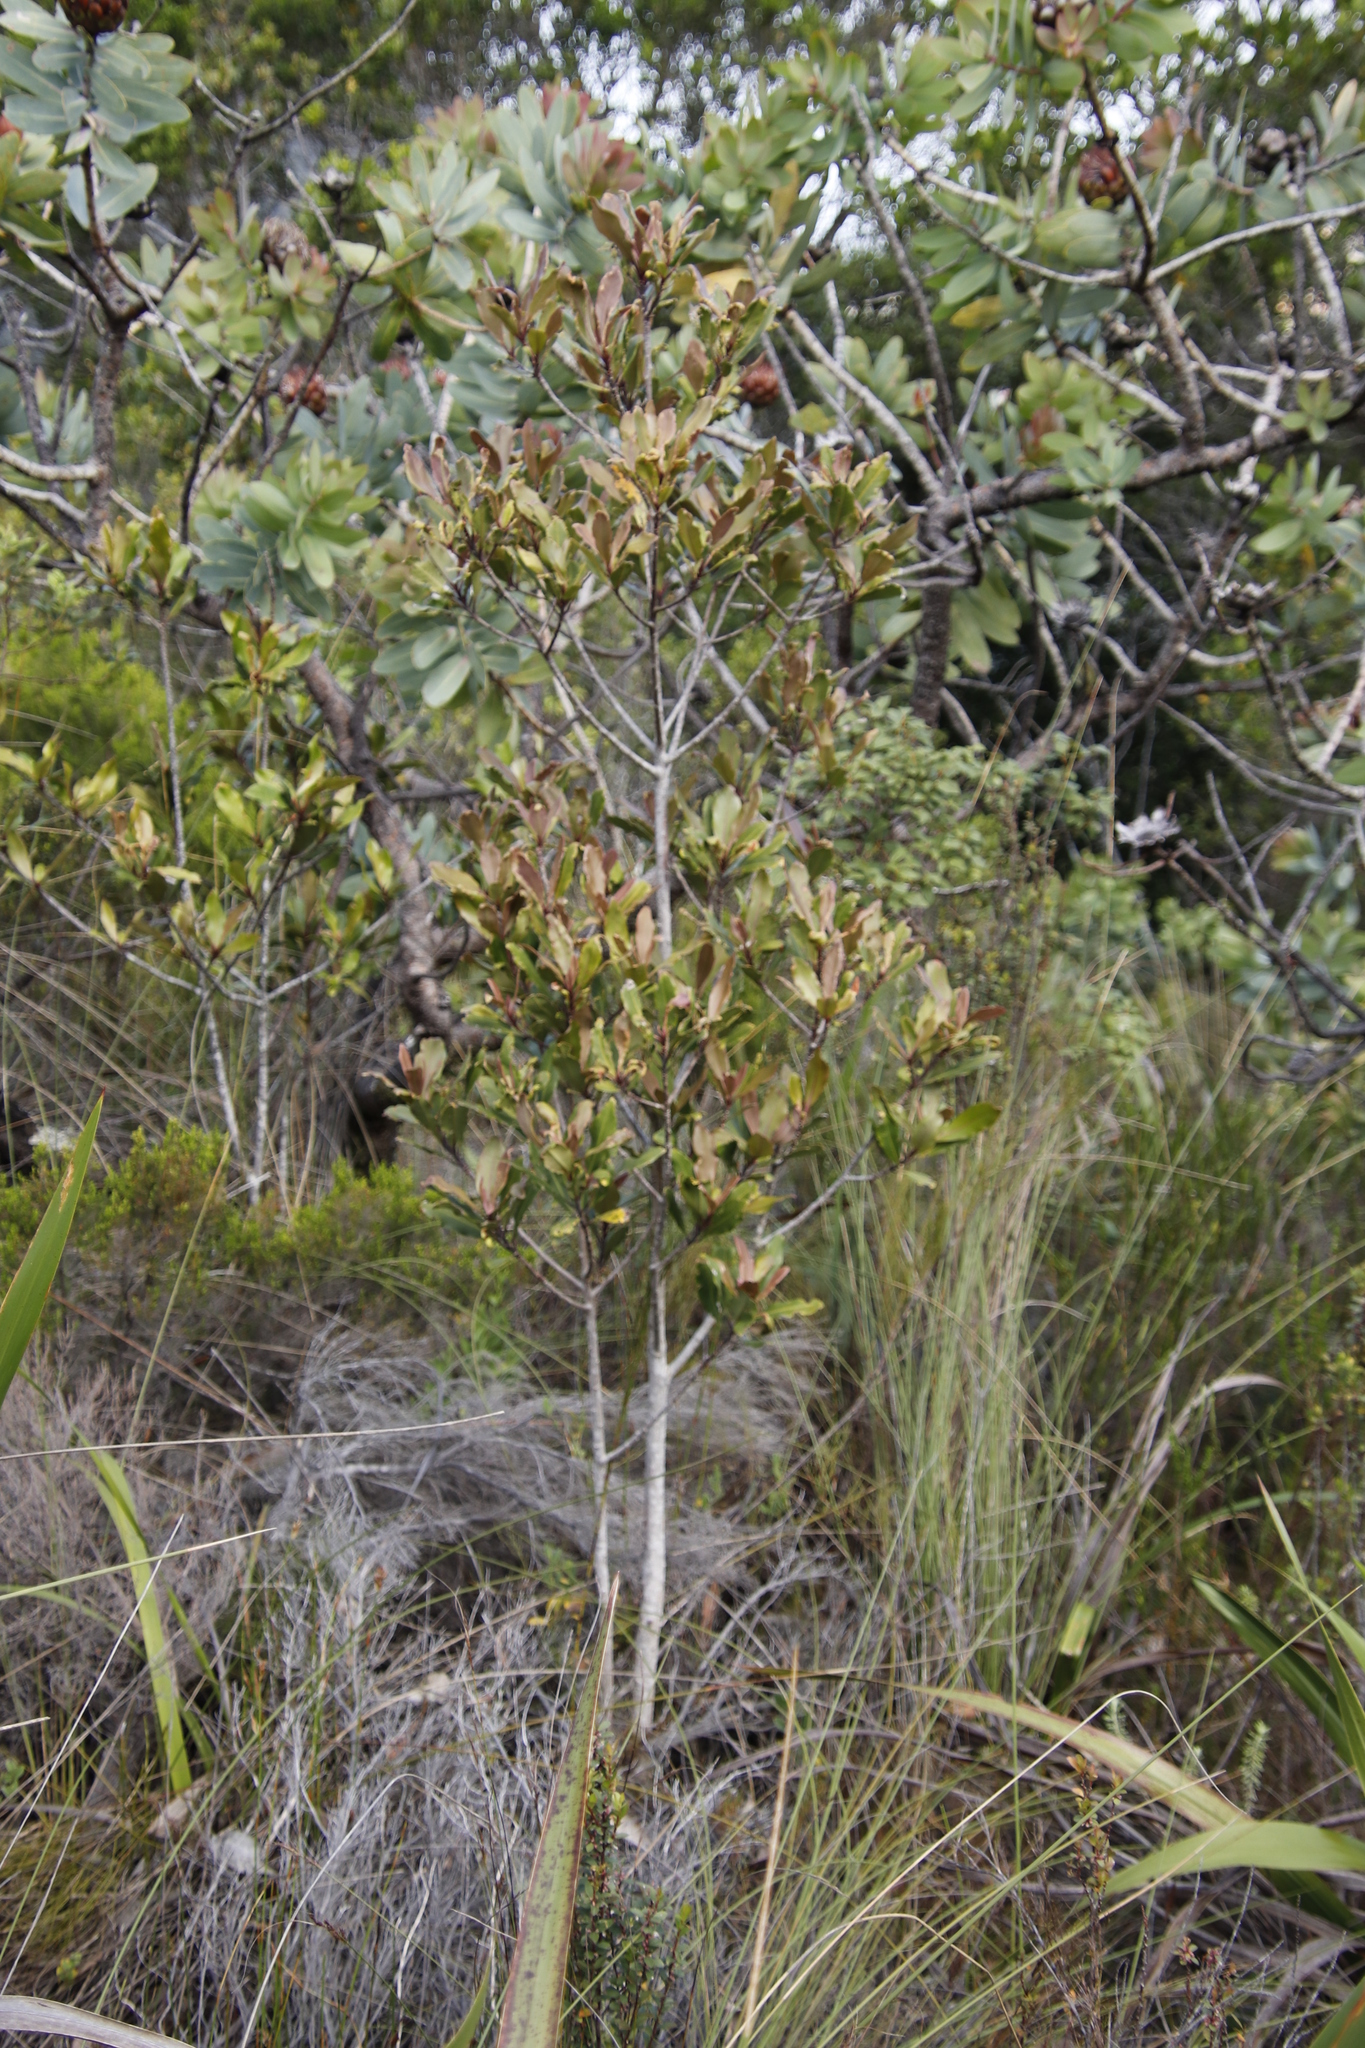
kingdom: Plantae
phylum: Tracheophyta
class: Magnoliopsida
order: Ericales
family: Primulaceae
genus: Myrsine
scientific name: Myrsine melanophloeos
